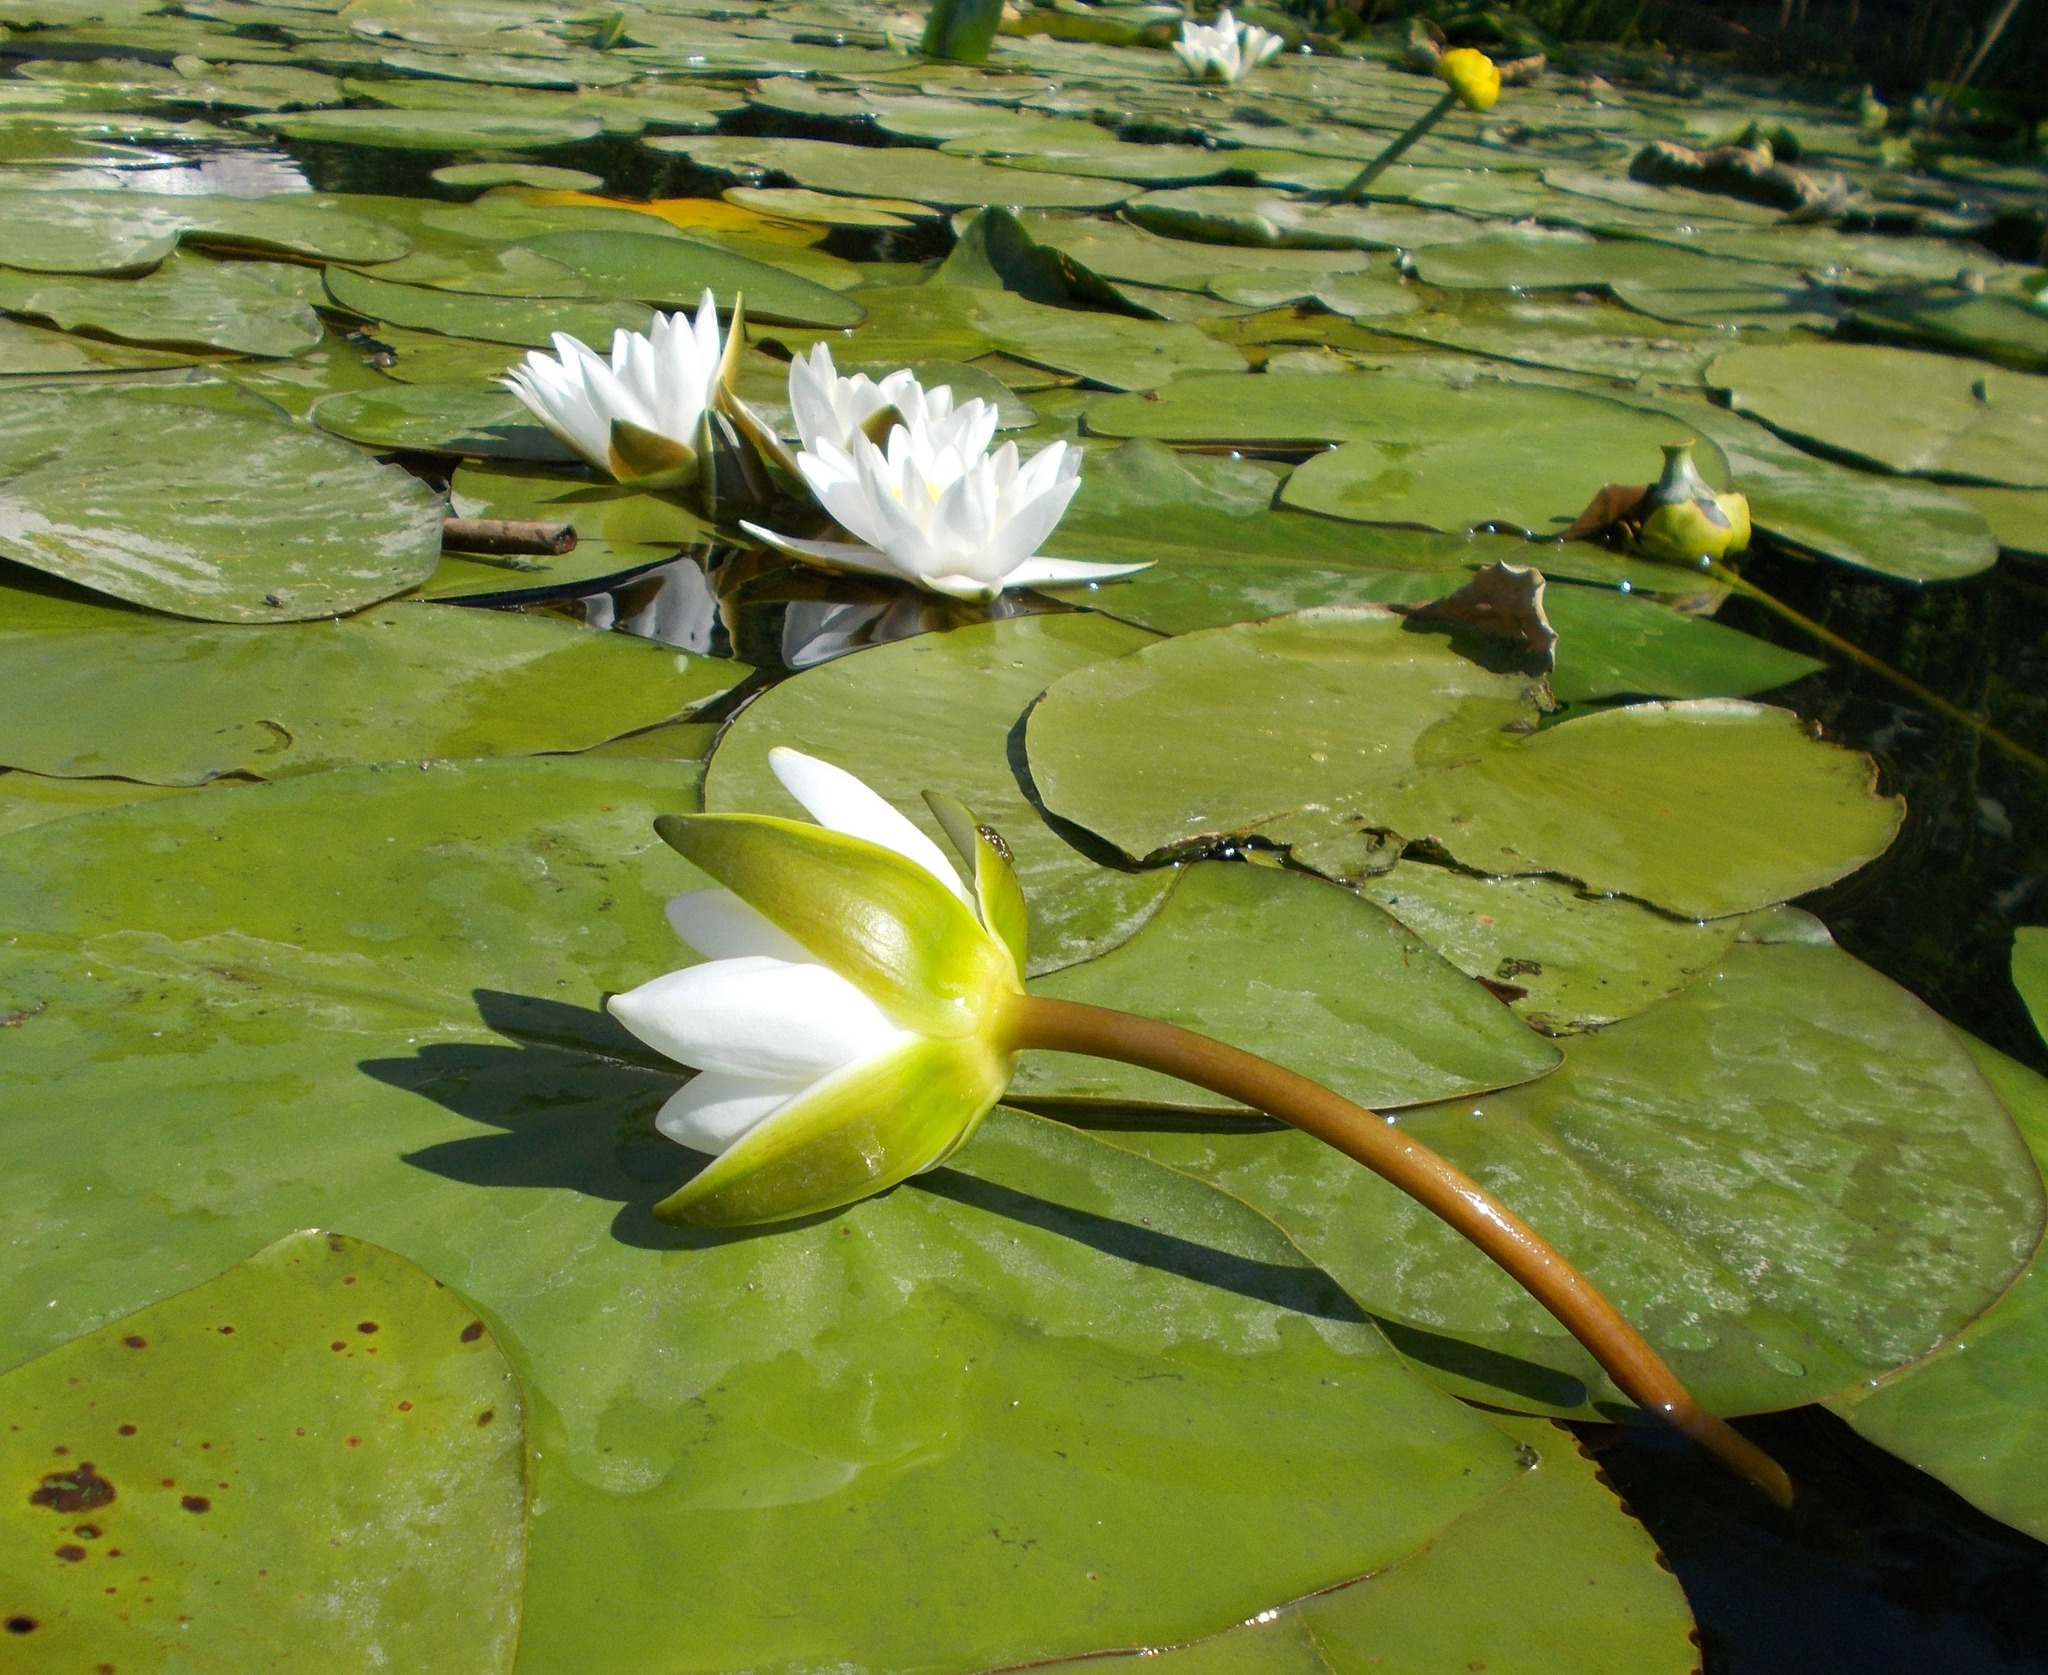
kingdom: Plantae
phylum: Tracheophyta
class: Magnoliopsida
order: Nymphaeales
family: Nymphaeaceae
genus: Nymphaea
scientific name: Nymphaea candida
